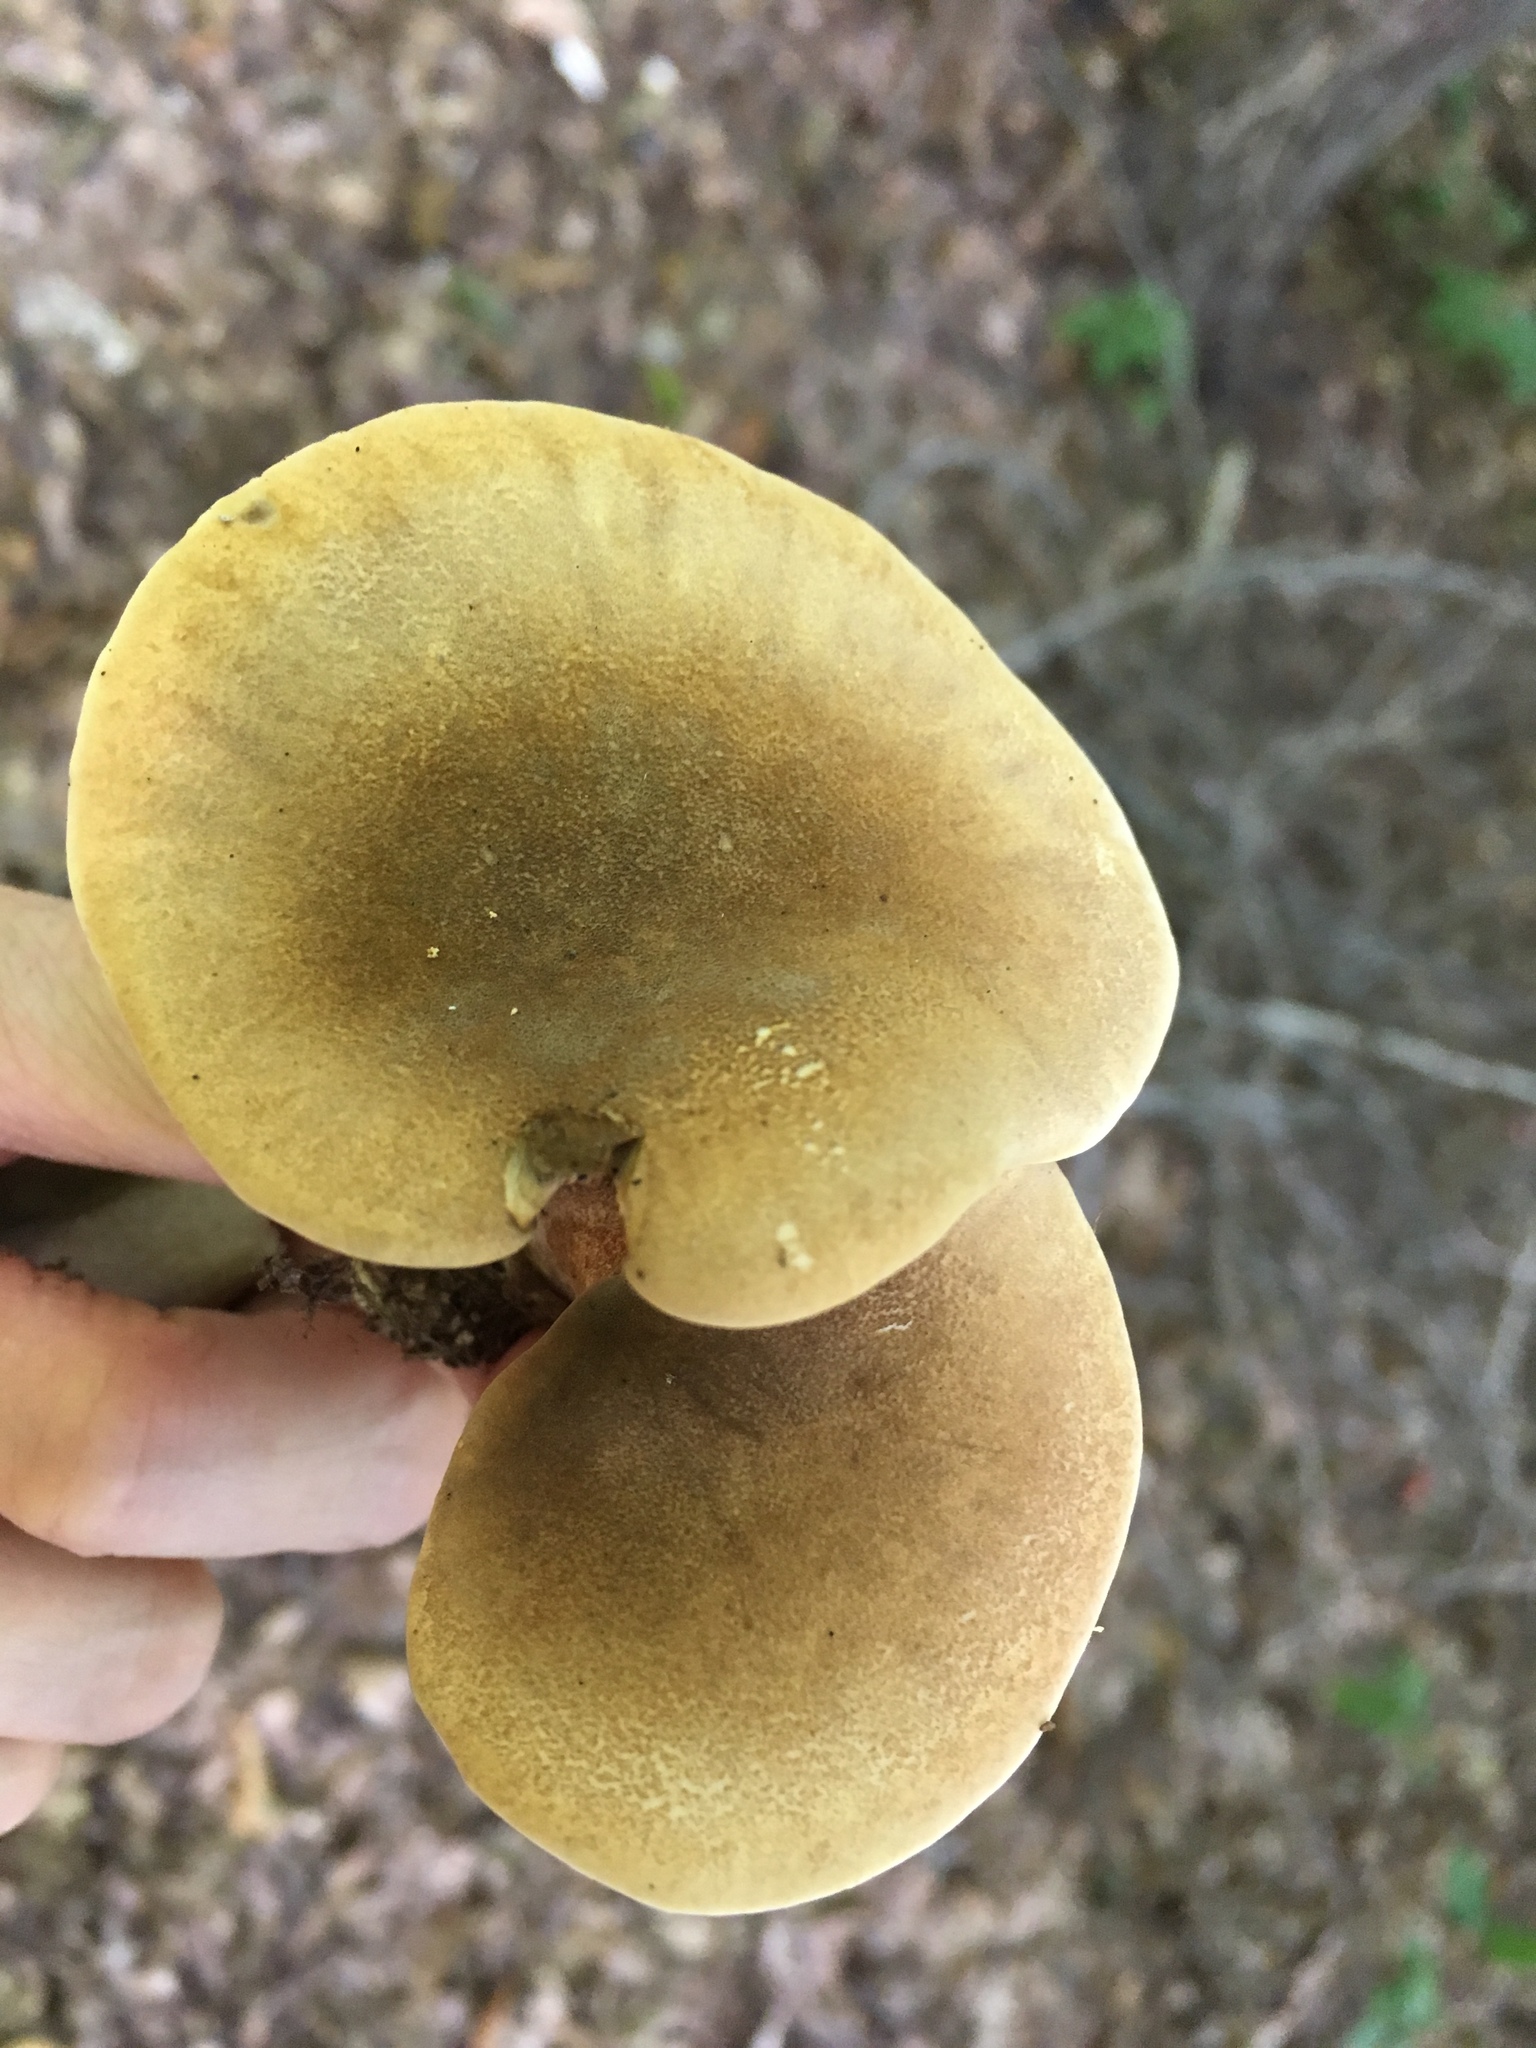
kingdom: Fungi
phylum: Basidiomycota
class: Agaricomycetes
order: Boletales
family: Tapinellaceae
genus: Tapinella
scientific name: Tapinella atrotomentosa
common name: Velvet rollrim
